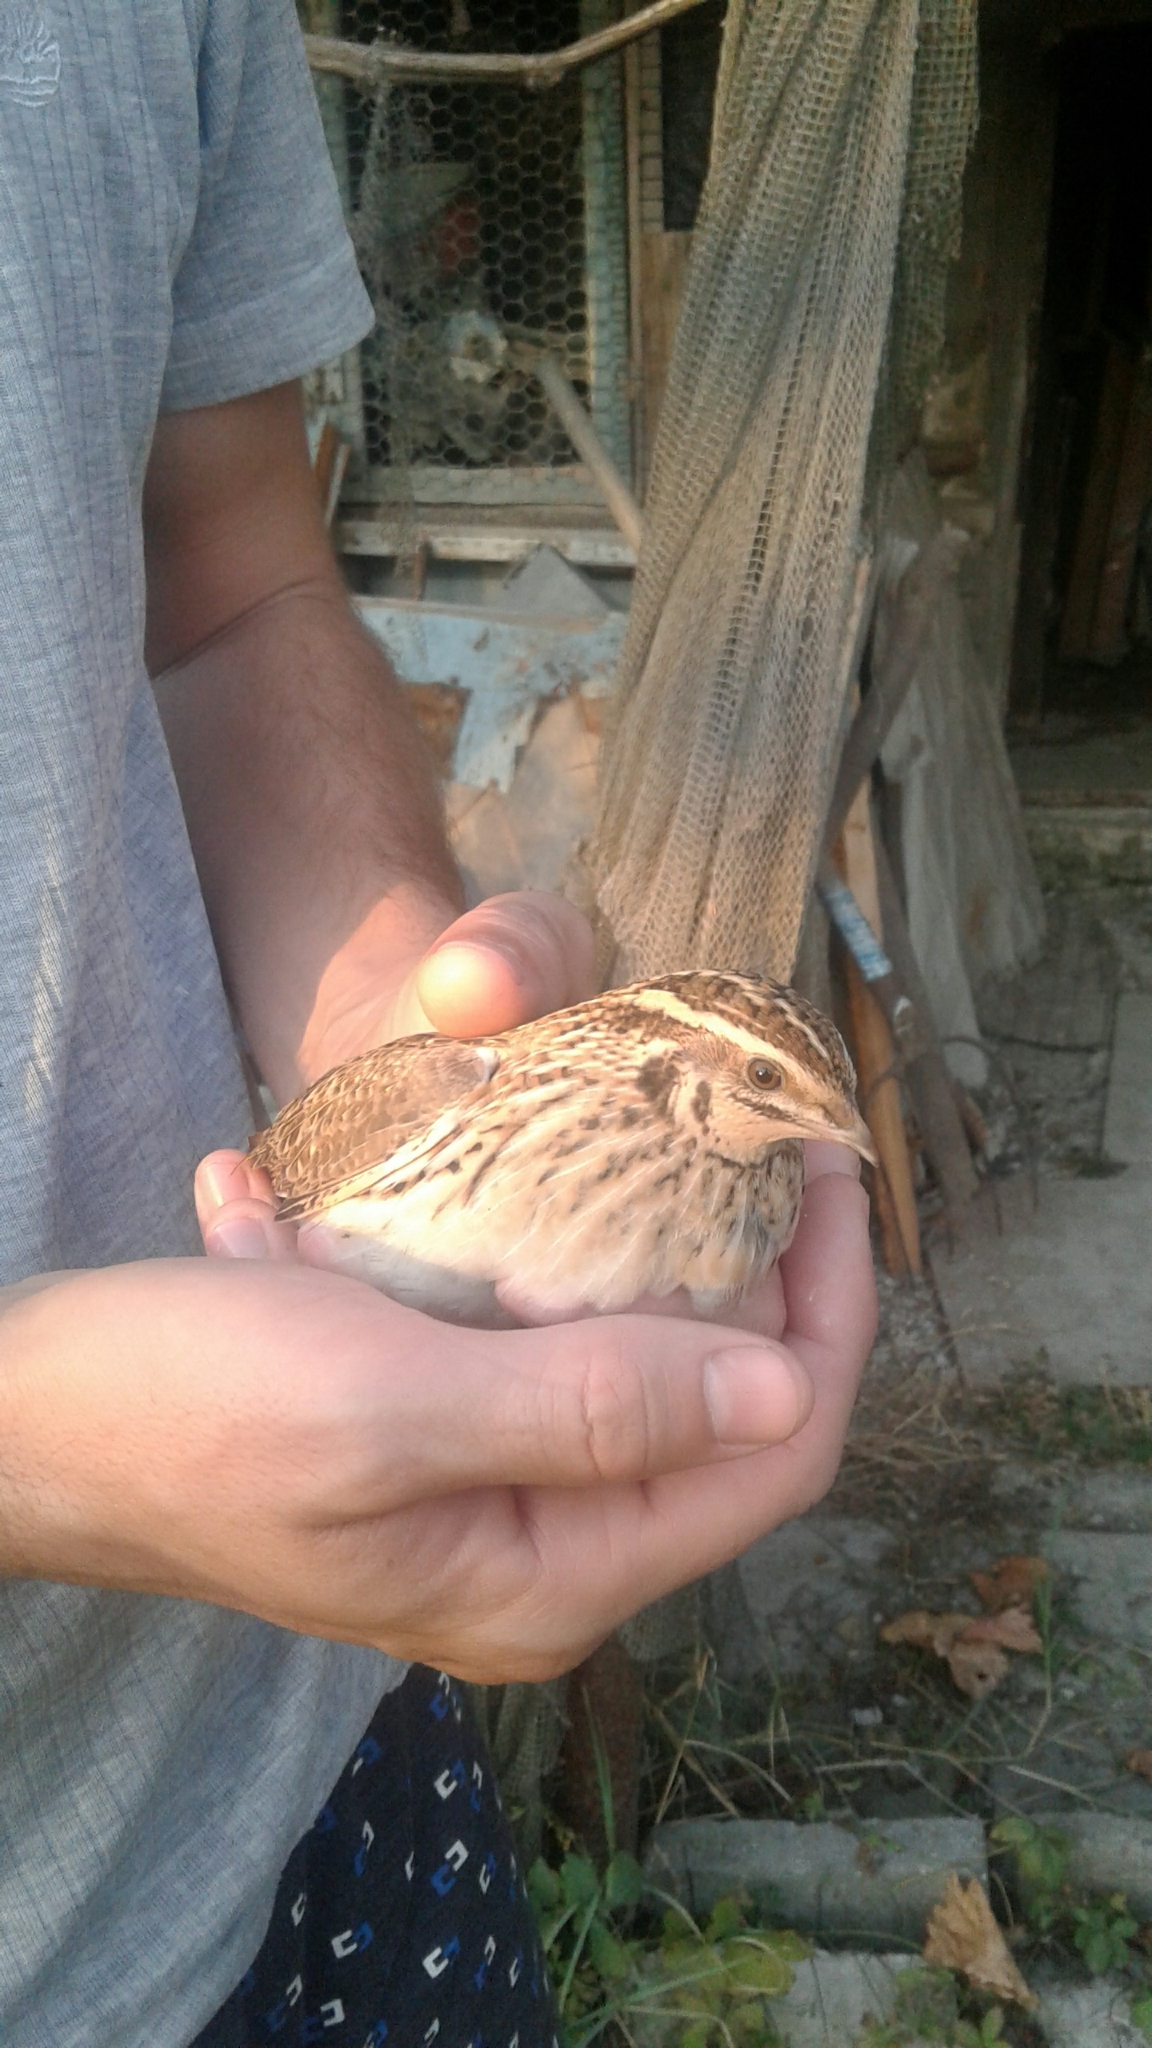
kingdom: Animalia
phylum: Chordata
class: Aves
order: Galliformes
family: Phasianidae
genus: Coturnix
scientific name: Coturnix coturnix
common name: Common quail
